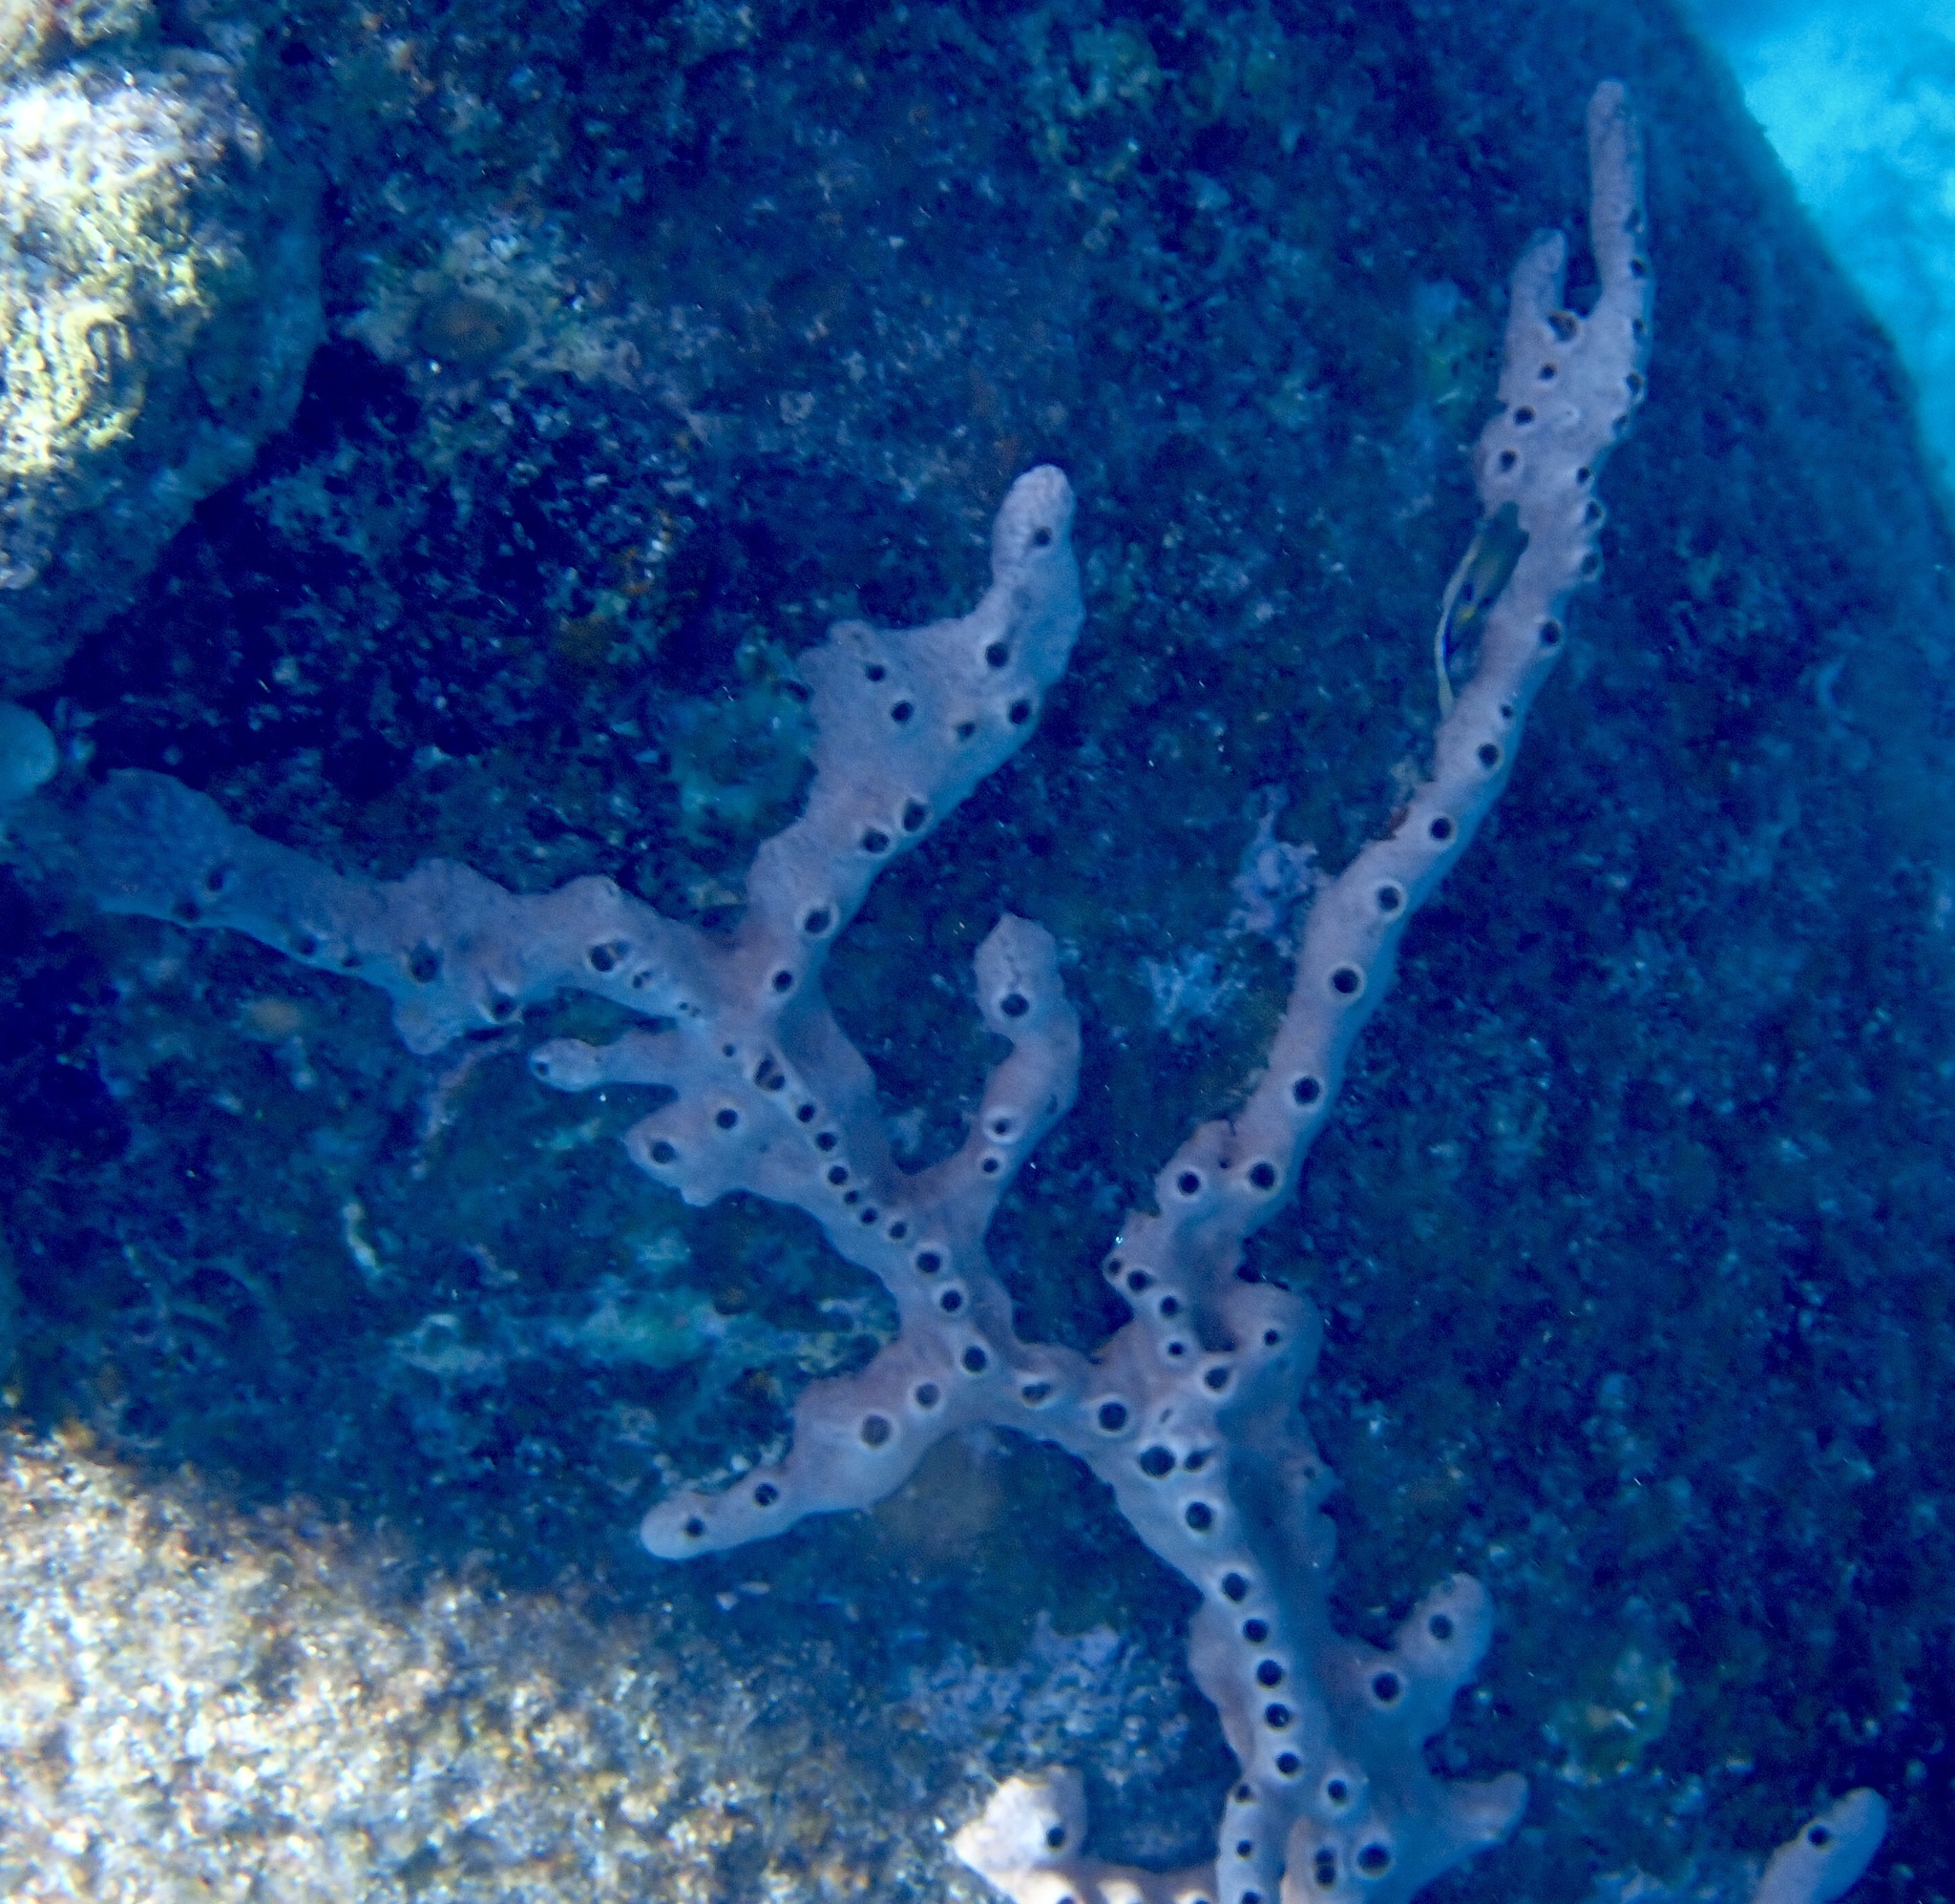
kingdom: Animalia
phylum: Porifera
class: Demospongiae
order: Poecilosclerida
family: Desmacididae
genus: Desmapsamma
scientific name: Desmapsamma anchorata
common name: Lumpy overgrowing sponge
